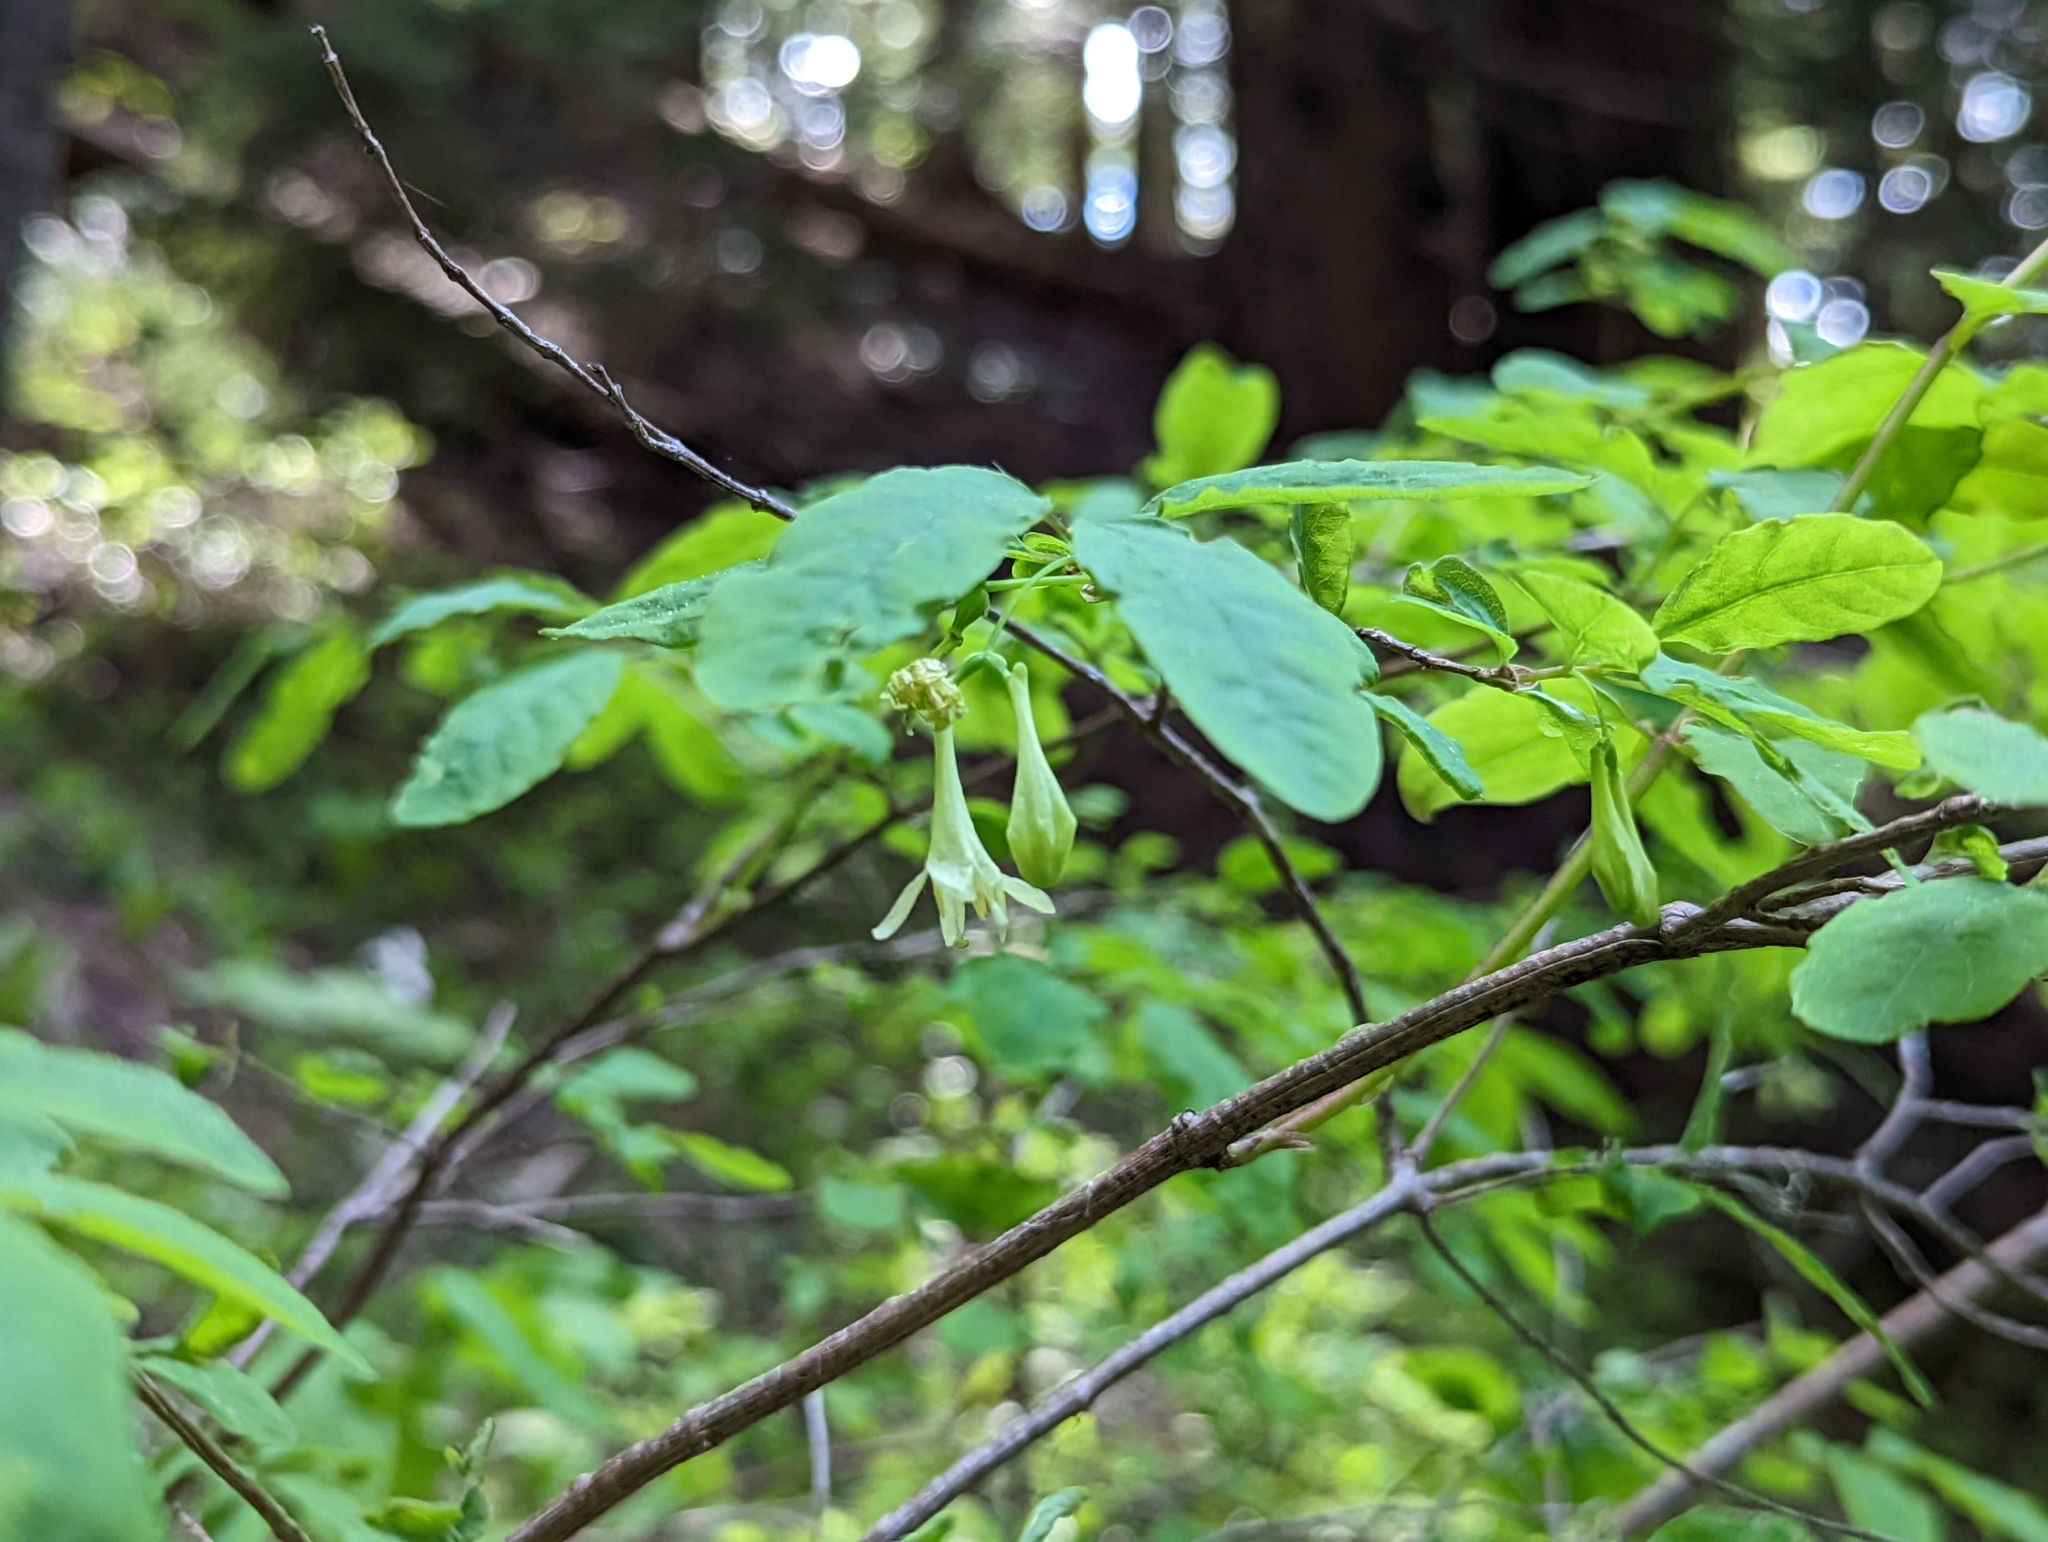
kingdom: Plantae
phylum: Tracheophyta
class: Magnoliopsida
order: Dipsacales
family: Caprifoliaceae
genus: Lonicera
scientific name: Lonicera utahensis
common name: Utah honeysuckle
